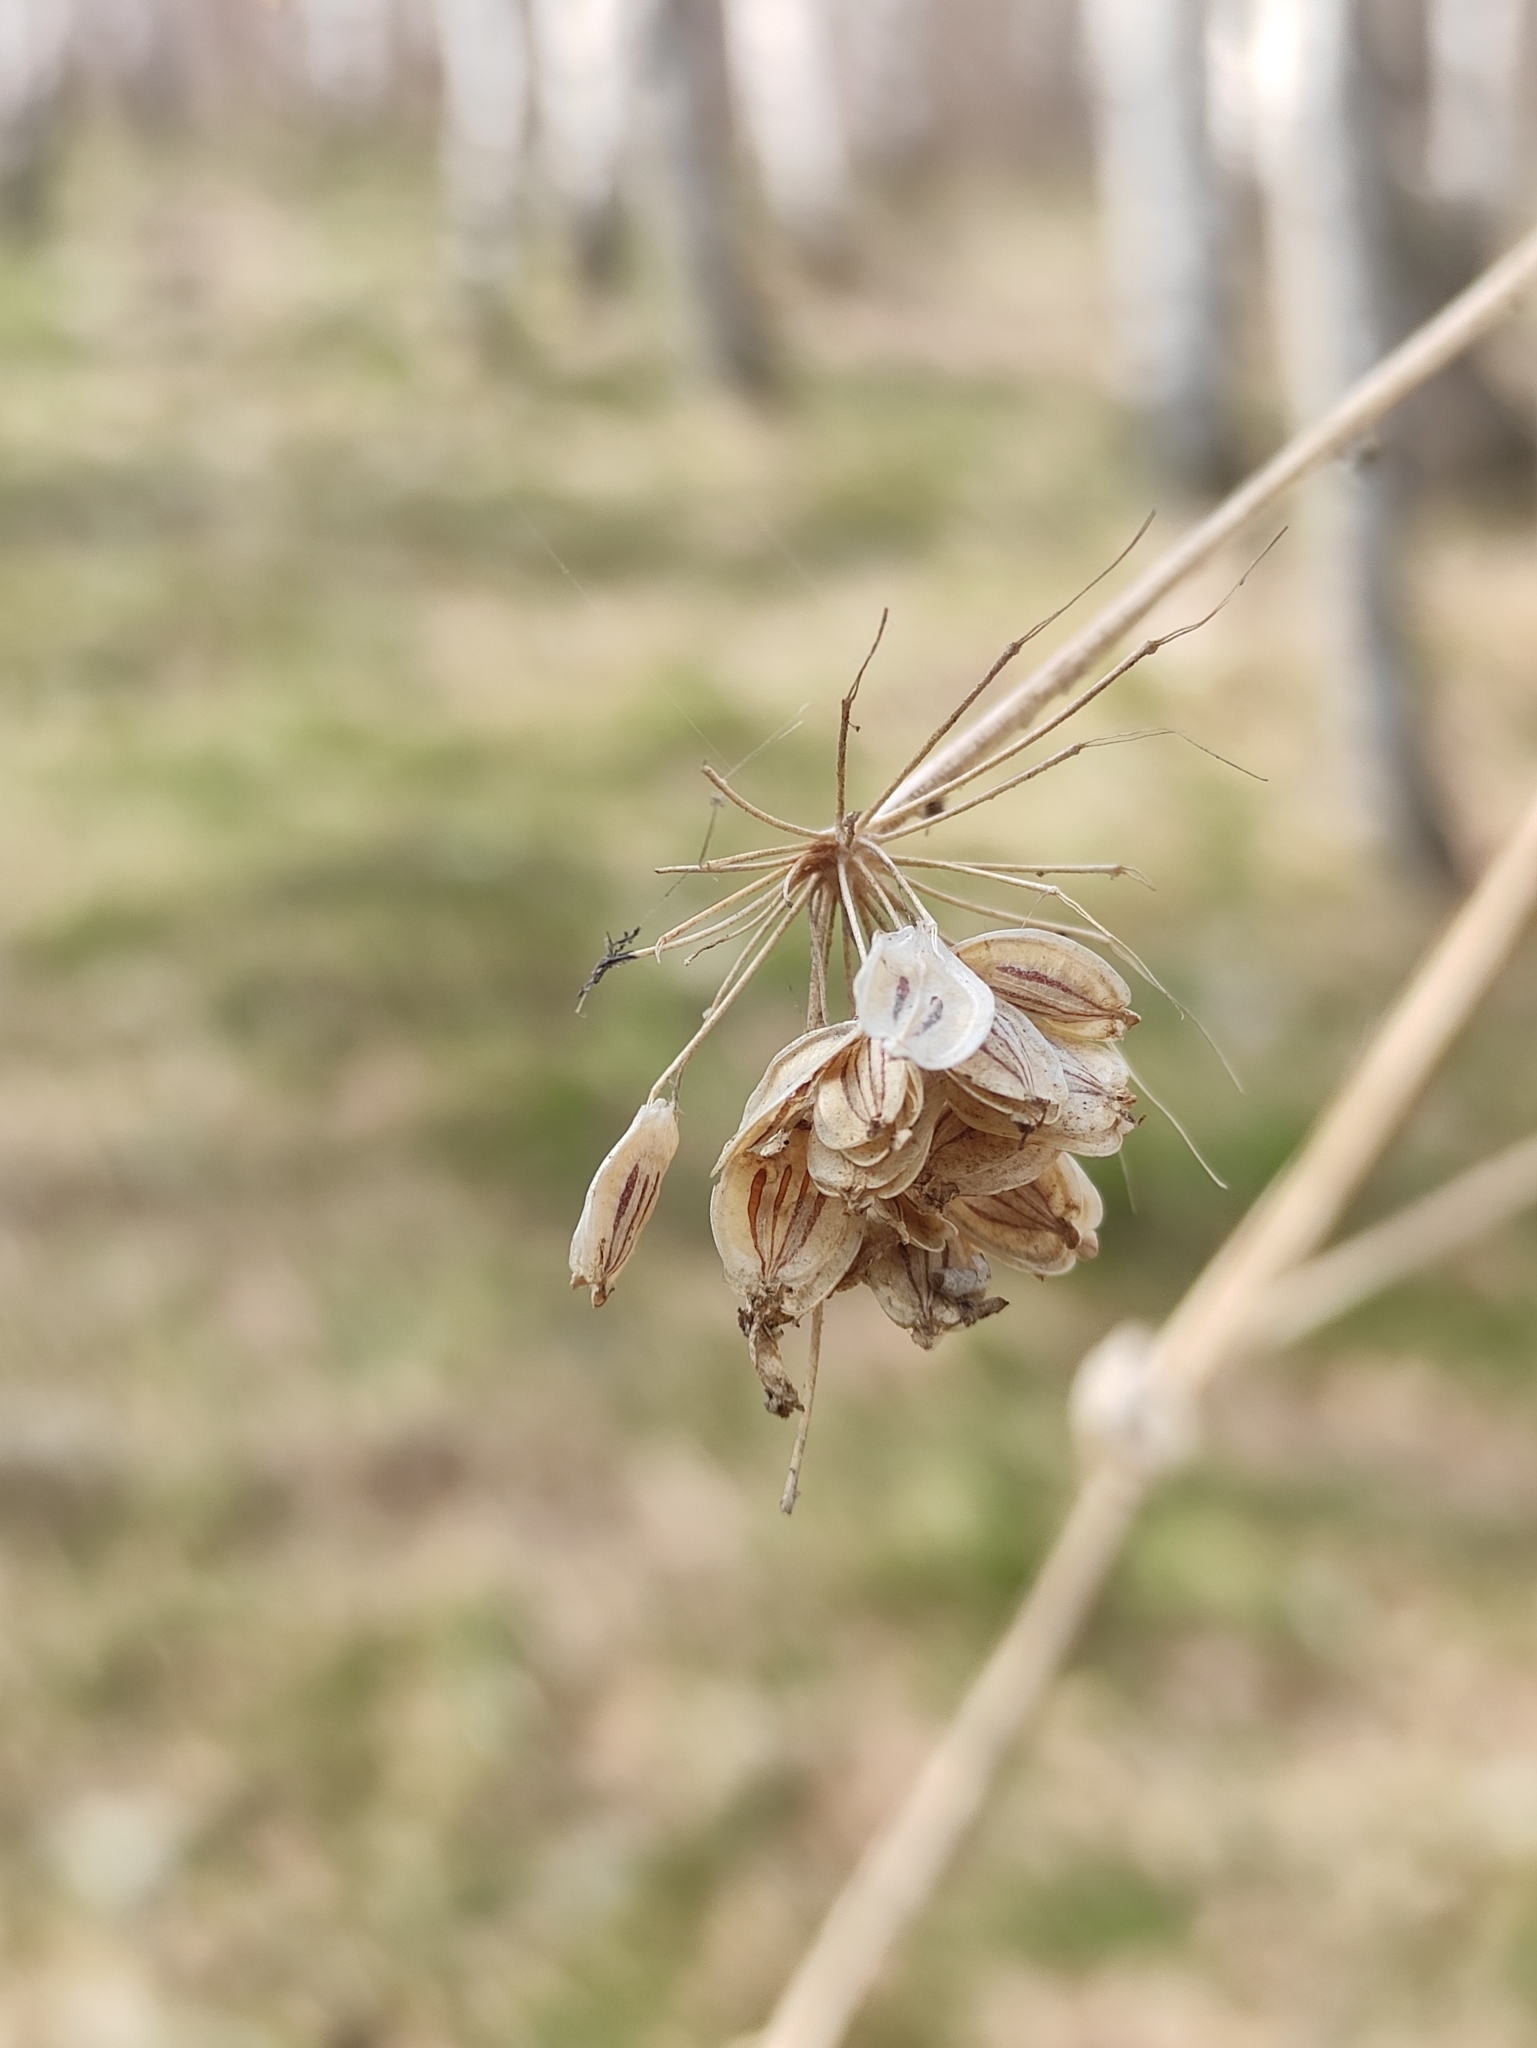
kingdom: Plantae
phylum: Tracheophyta
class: Magnoliopsida
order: Apiales
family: Apiaceae
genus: Heracleum
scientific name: Heracleum dissectum
